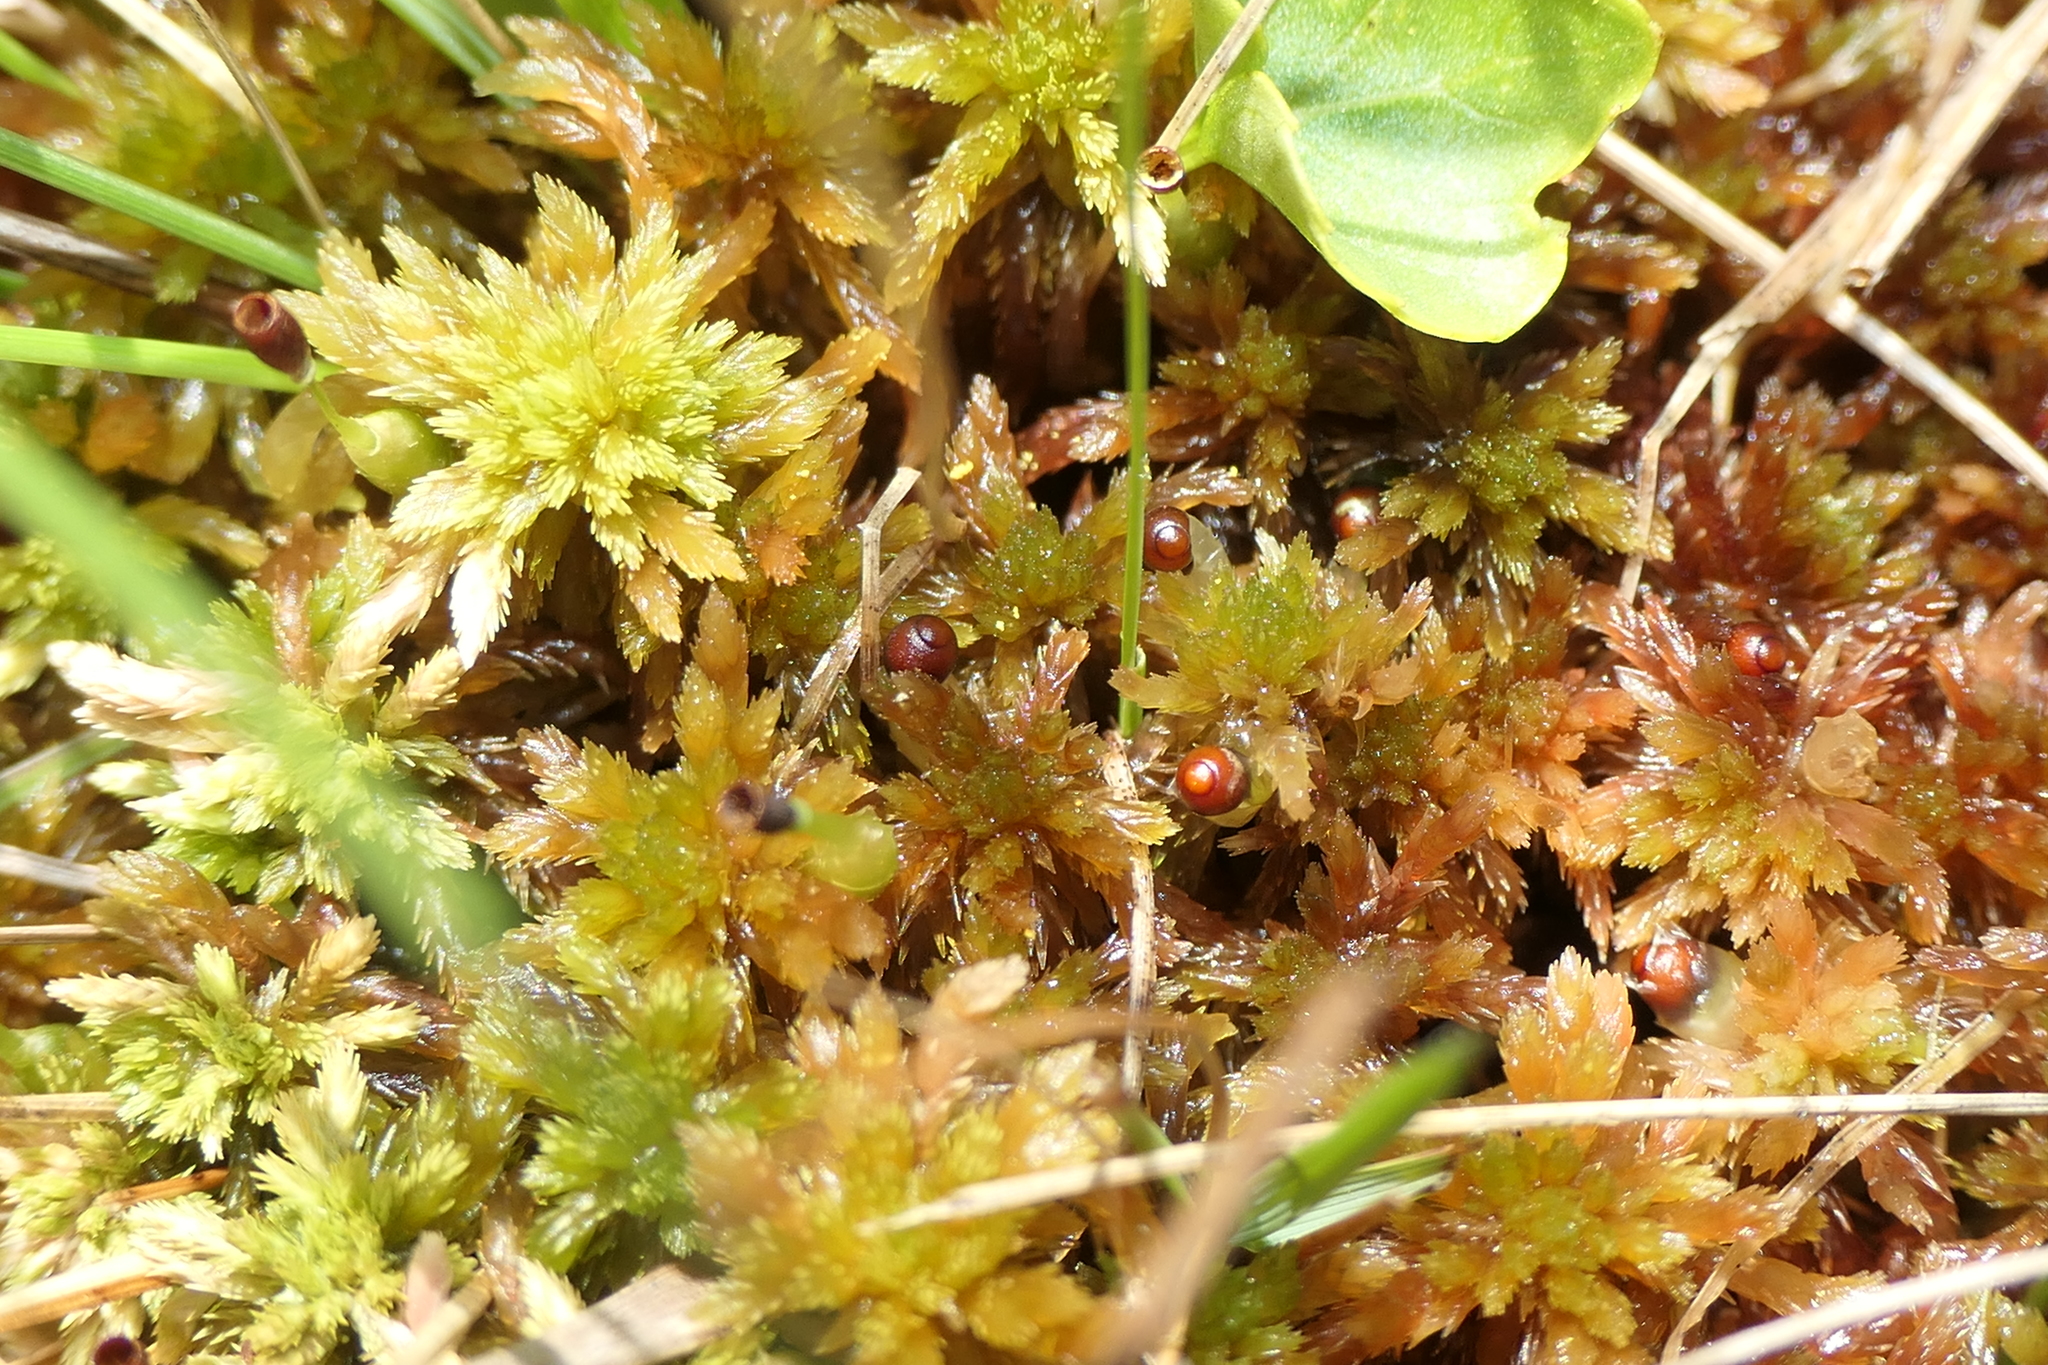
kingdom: Plantae
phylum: Bryophyta
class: Sphagnopsida
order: Sphagnales
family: Sphagnaceae
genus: Sphagnum
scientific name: Sphagnum subnitens
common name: Lustrous bog-moss
